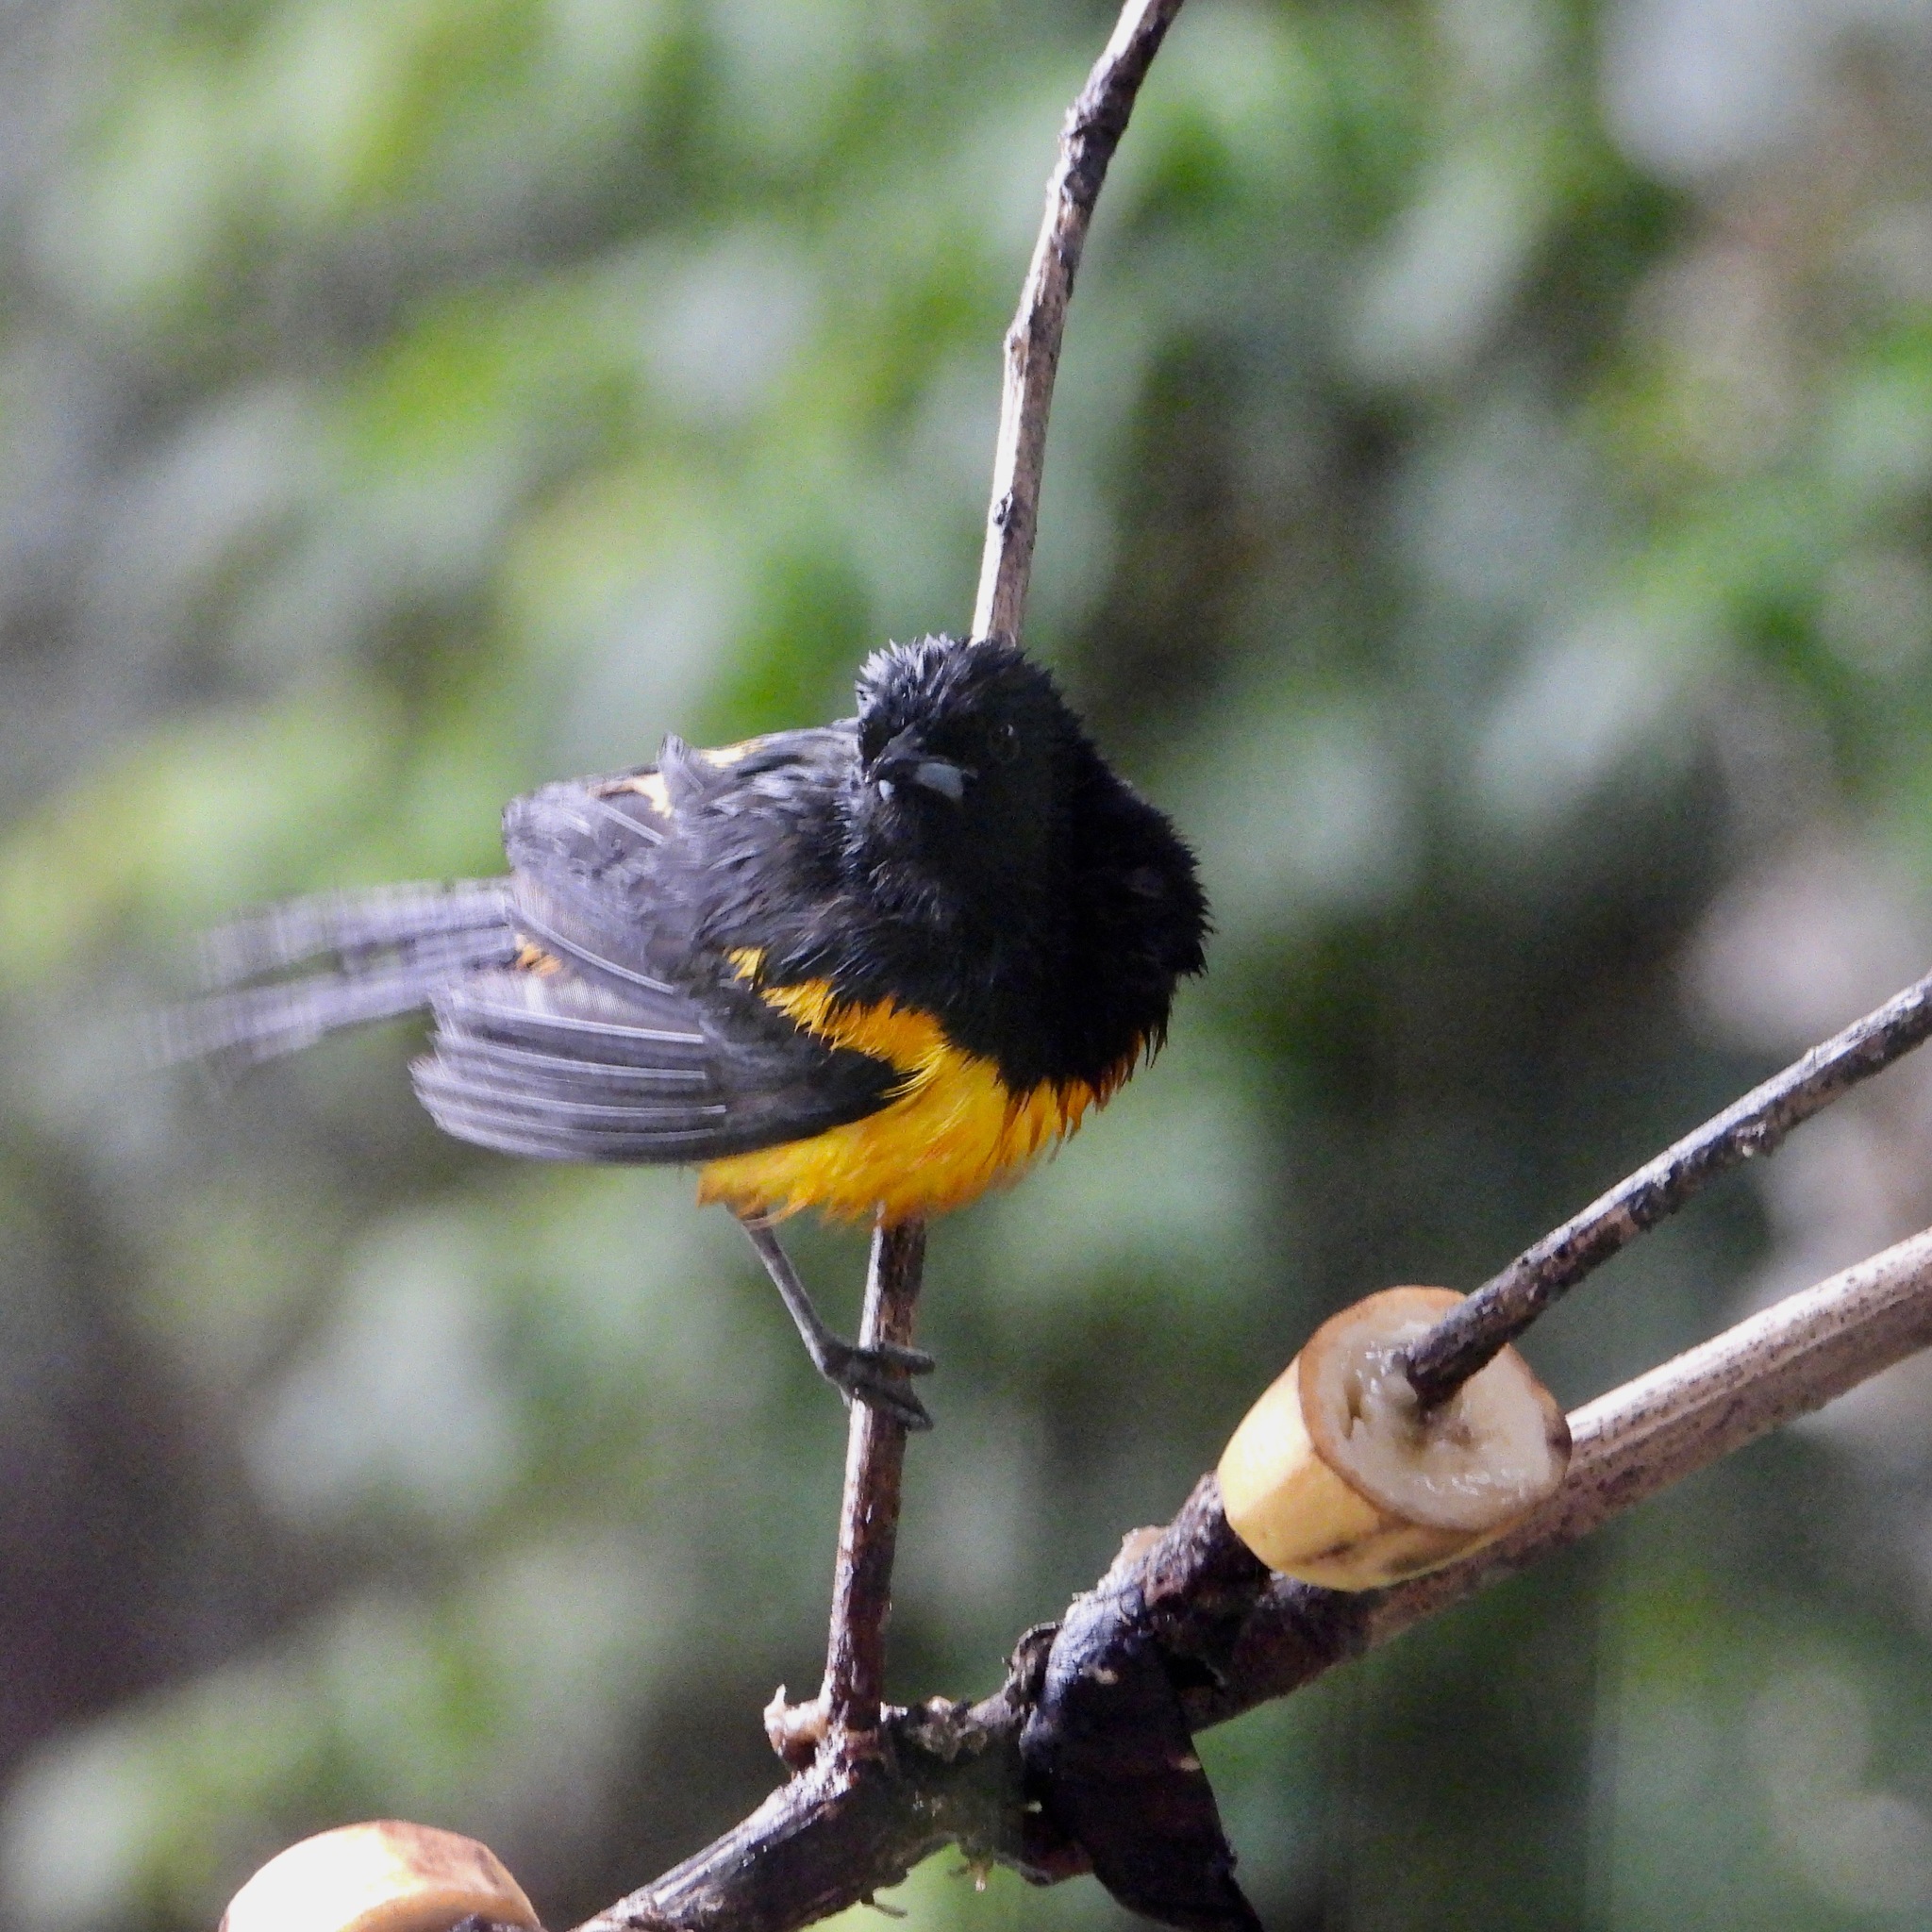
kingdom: Animalia
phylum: Chordata
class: Aves
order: Passeriformes
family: Icteridae
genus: Icterus
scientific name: Icterus wagleri
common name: Black-vented oriole
